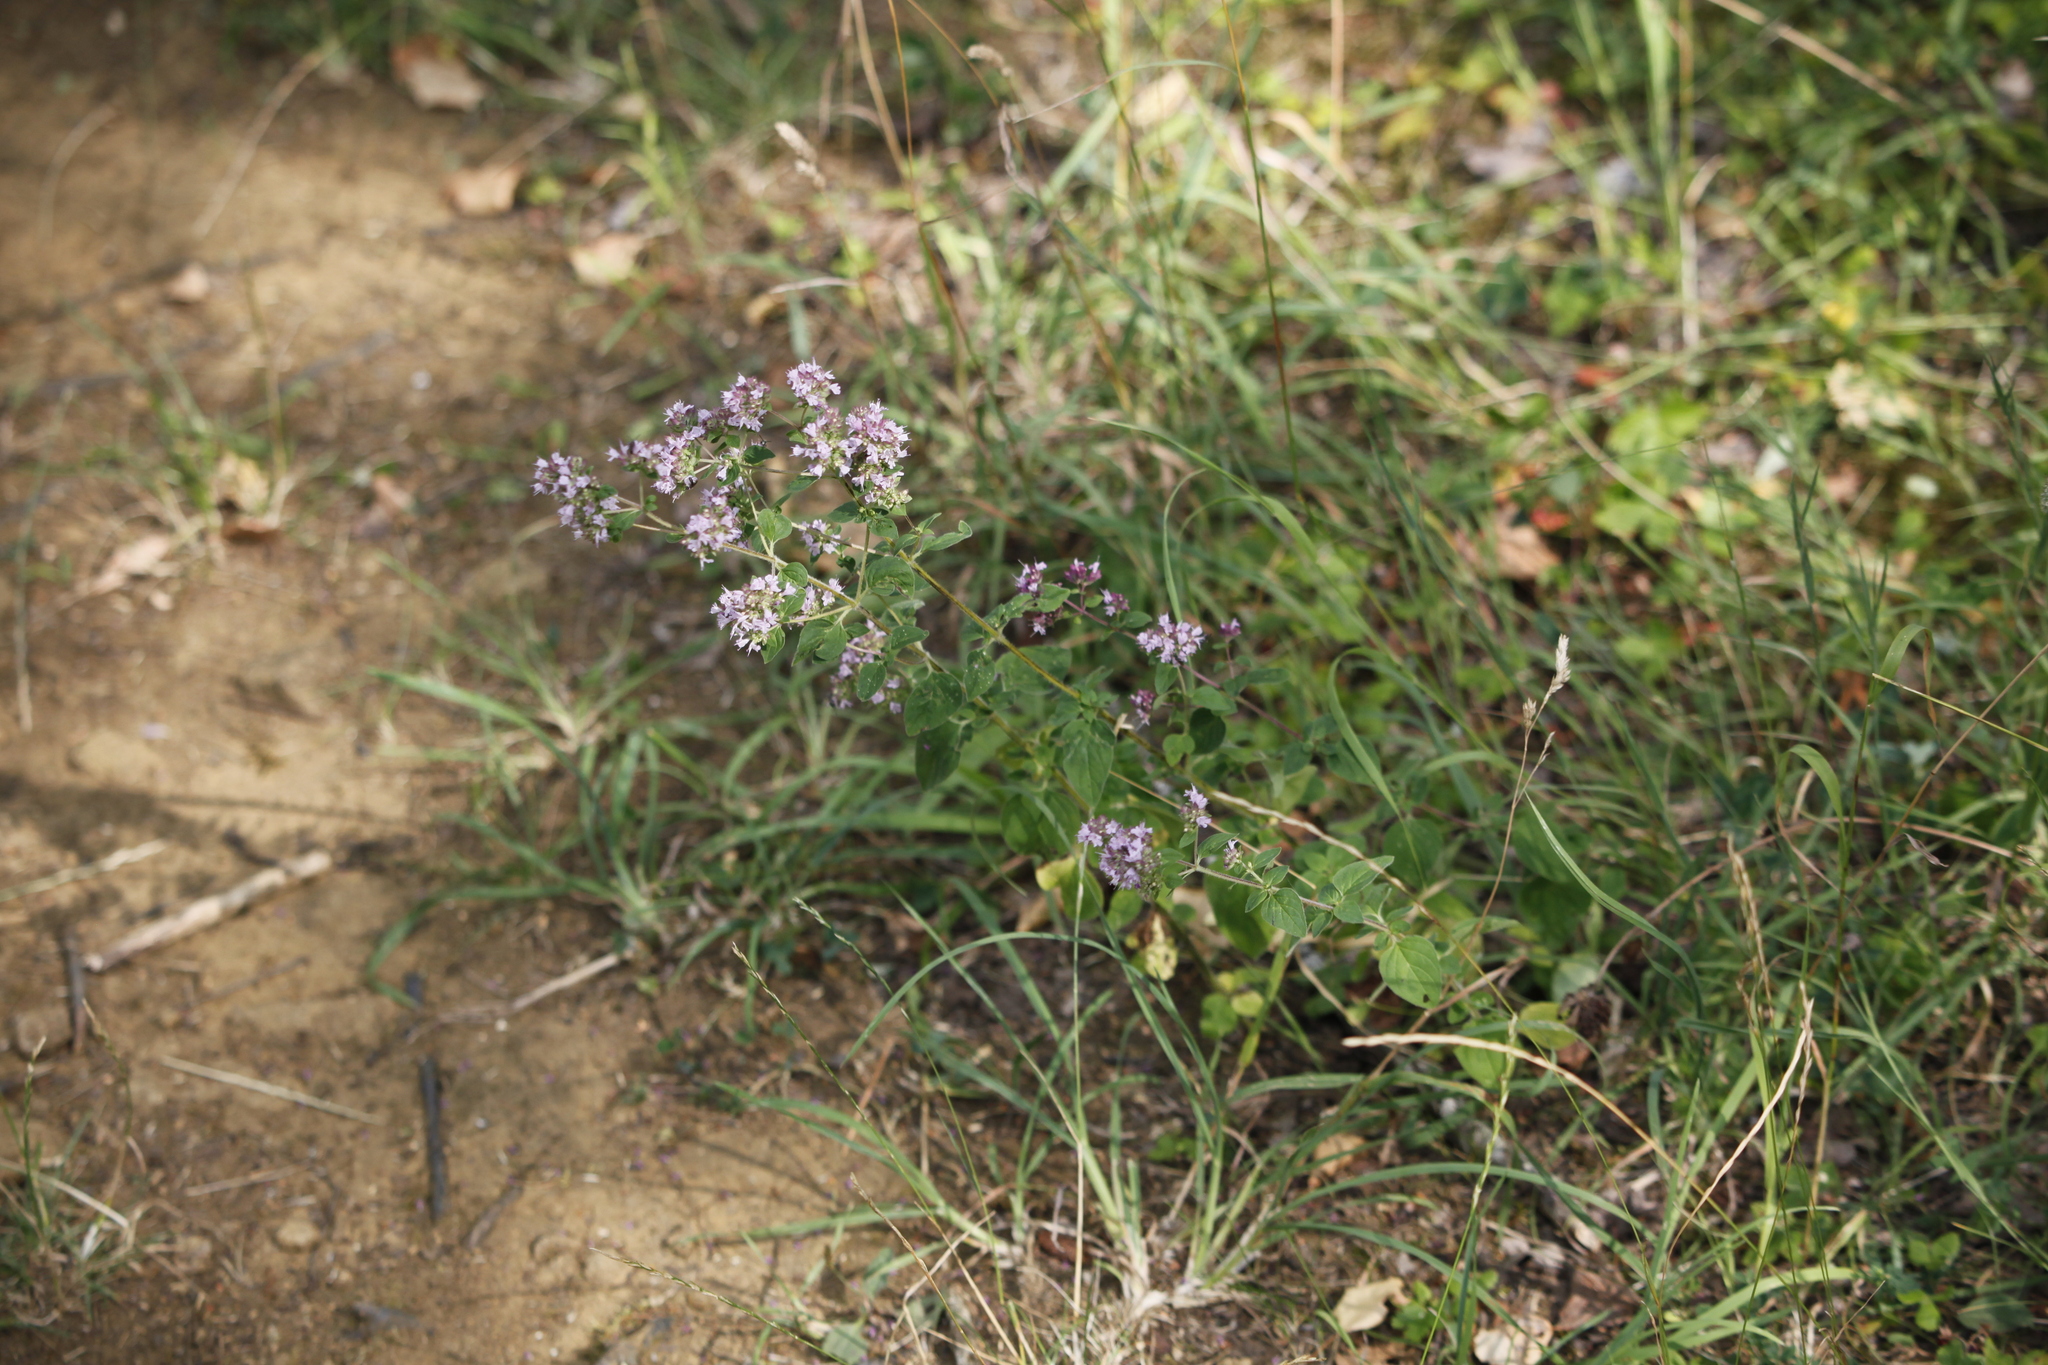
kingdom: Plantae
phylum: Tracheophyta
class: Magnoliopsida
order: Lamiales
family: Lamiaceae
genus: Origanum
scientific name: Origanum vulgare
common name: Wild marjoram
